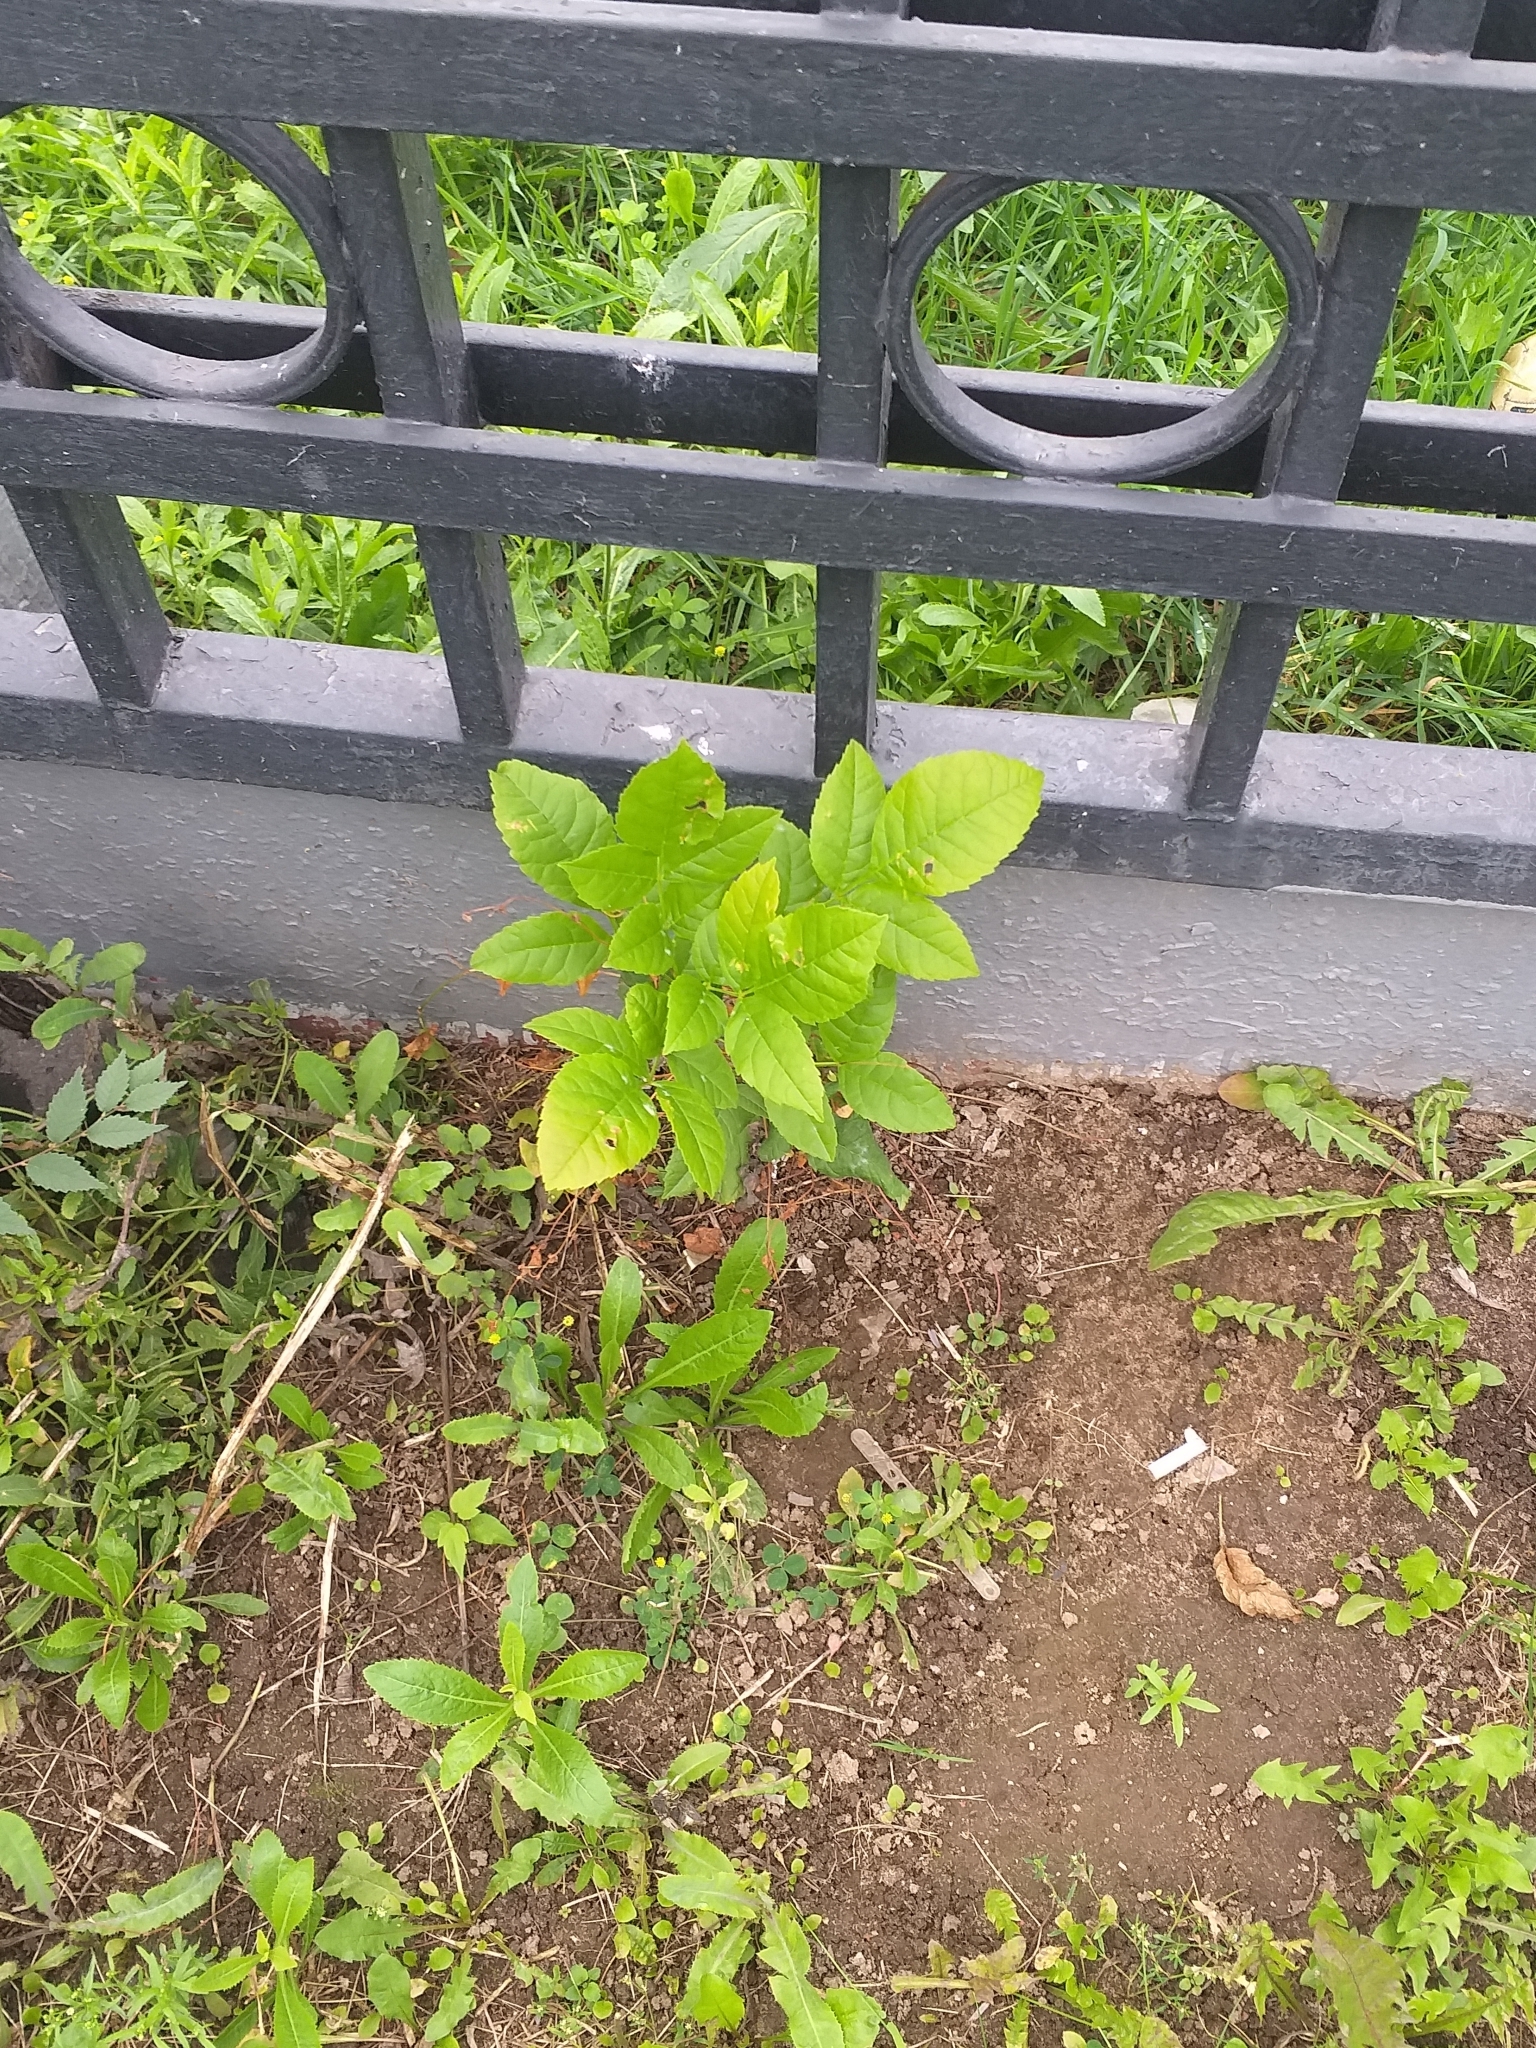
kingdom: Plantae
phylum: Tracheophyta
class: Magnoliopsida
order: Lamiales
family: Oleaceae
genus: Fraxinus
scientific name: Fraxinus pennsylvanica
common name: Green ash
